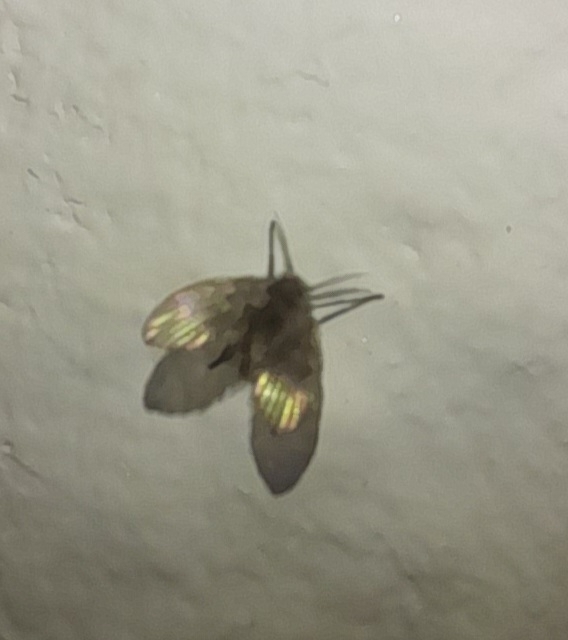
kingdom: Animalia
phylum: Arthropoda
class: Insecta
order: Diptera
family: Psychodidae
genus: Clogmia
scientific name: Clogmia albipunctatus
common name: White-spotted moth fly
